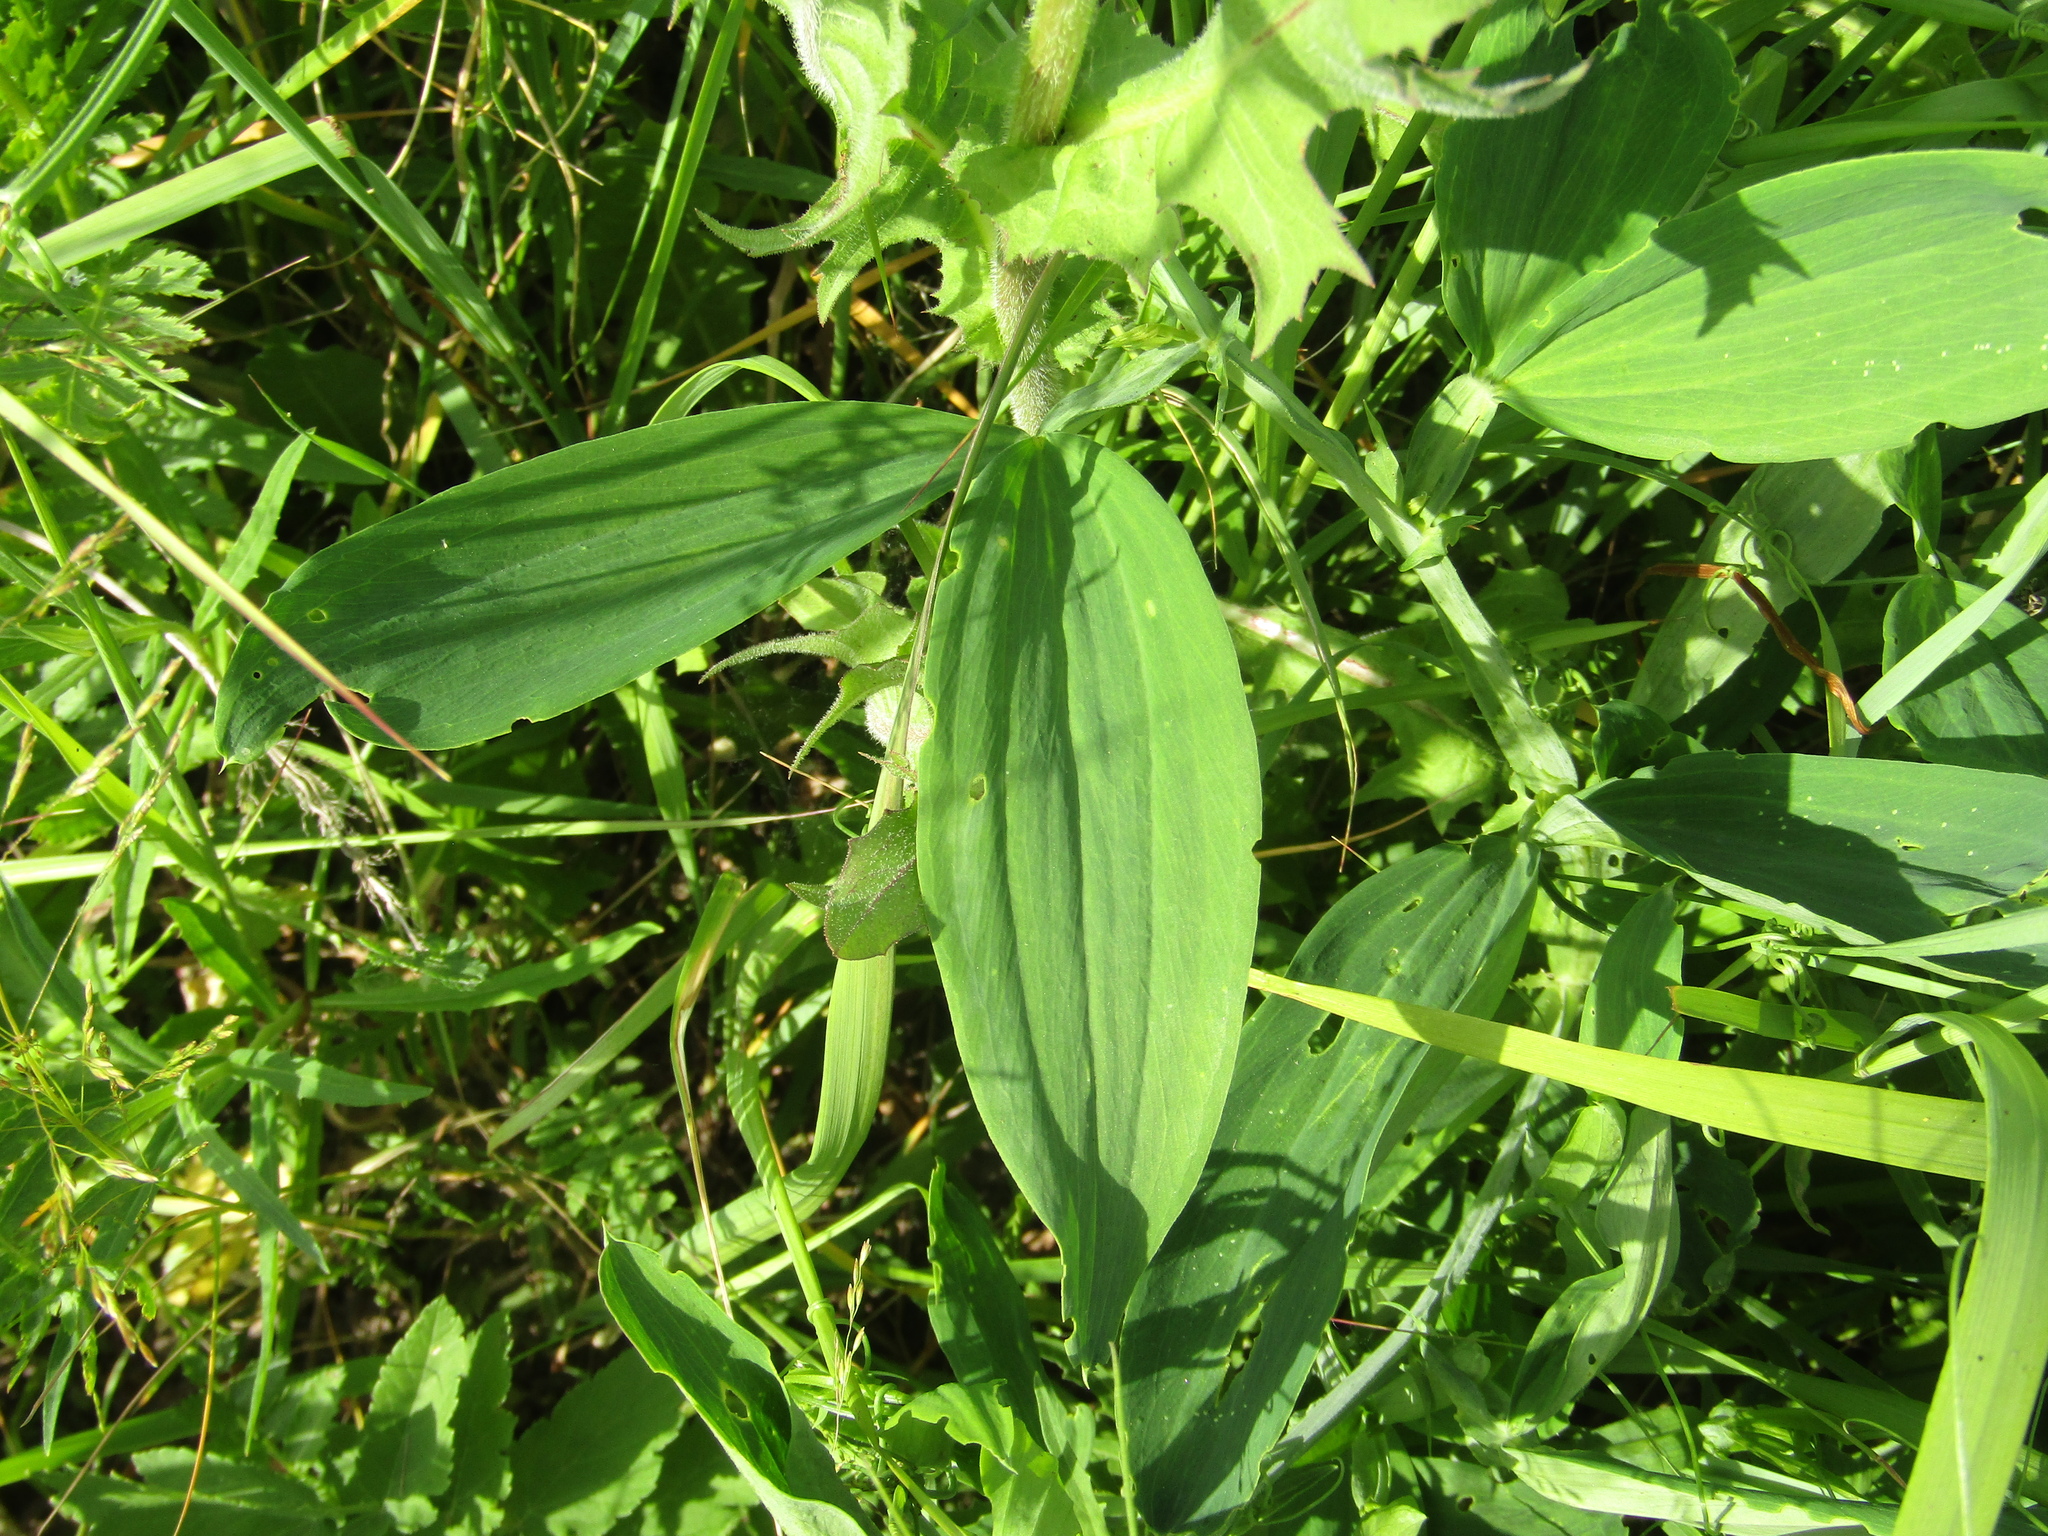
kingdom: Plantae
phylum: Tracheophyta
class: Magnoliopsida
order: Fabales
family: Fabaceae
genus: Lathyrus
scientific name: Lathyrus sylvestris
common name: Flat pea
